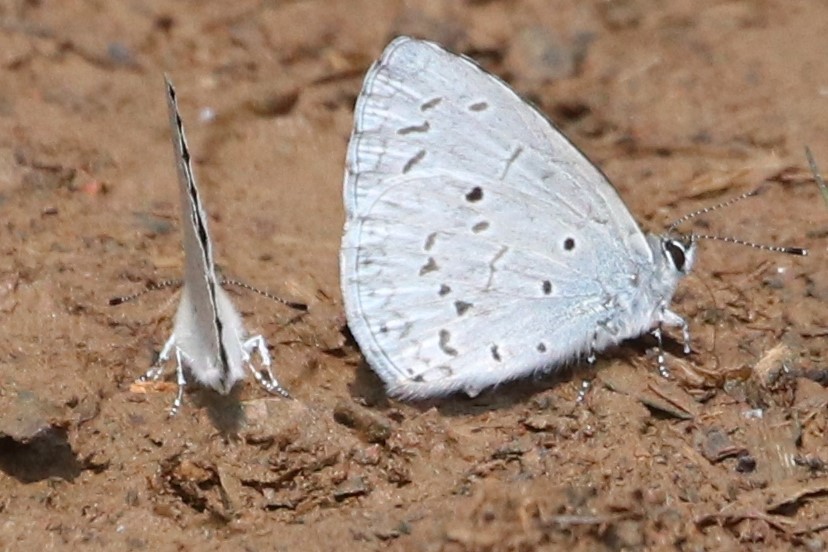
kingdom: Animalia
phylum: Arthropoda
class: Insecta
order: Lepidoptera
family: Lycaenidae
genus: Celastrina
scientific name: Celastrina lavendularis
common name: Plain hedge blue
